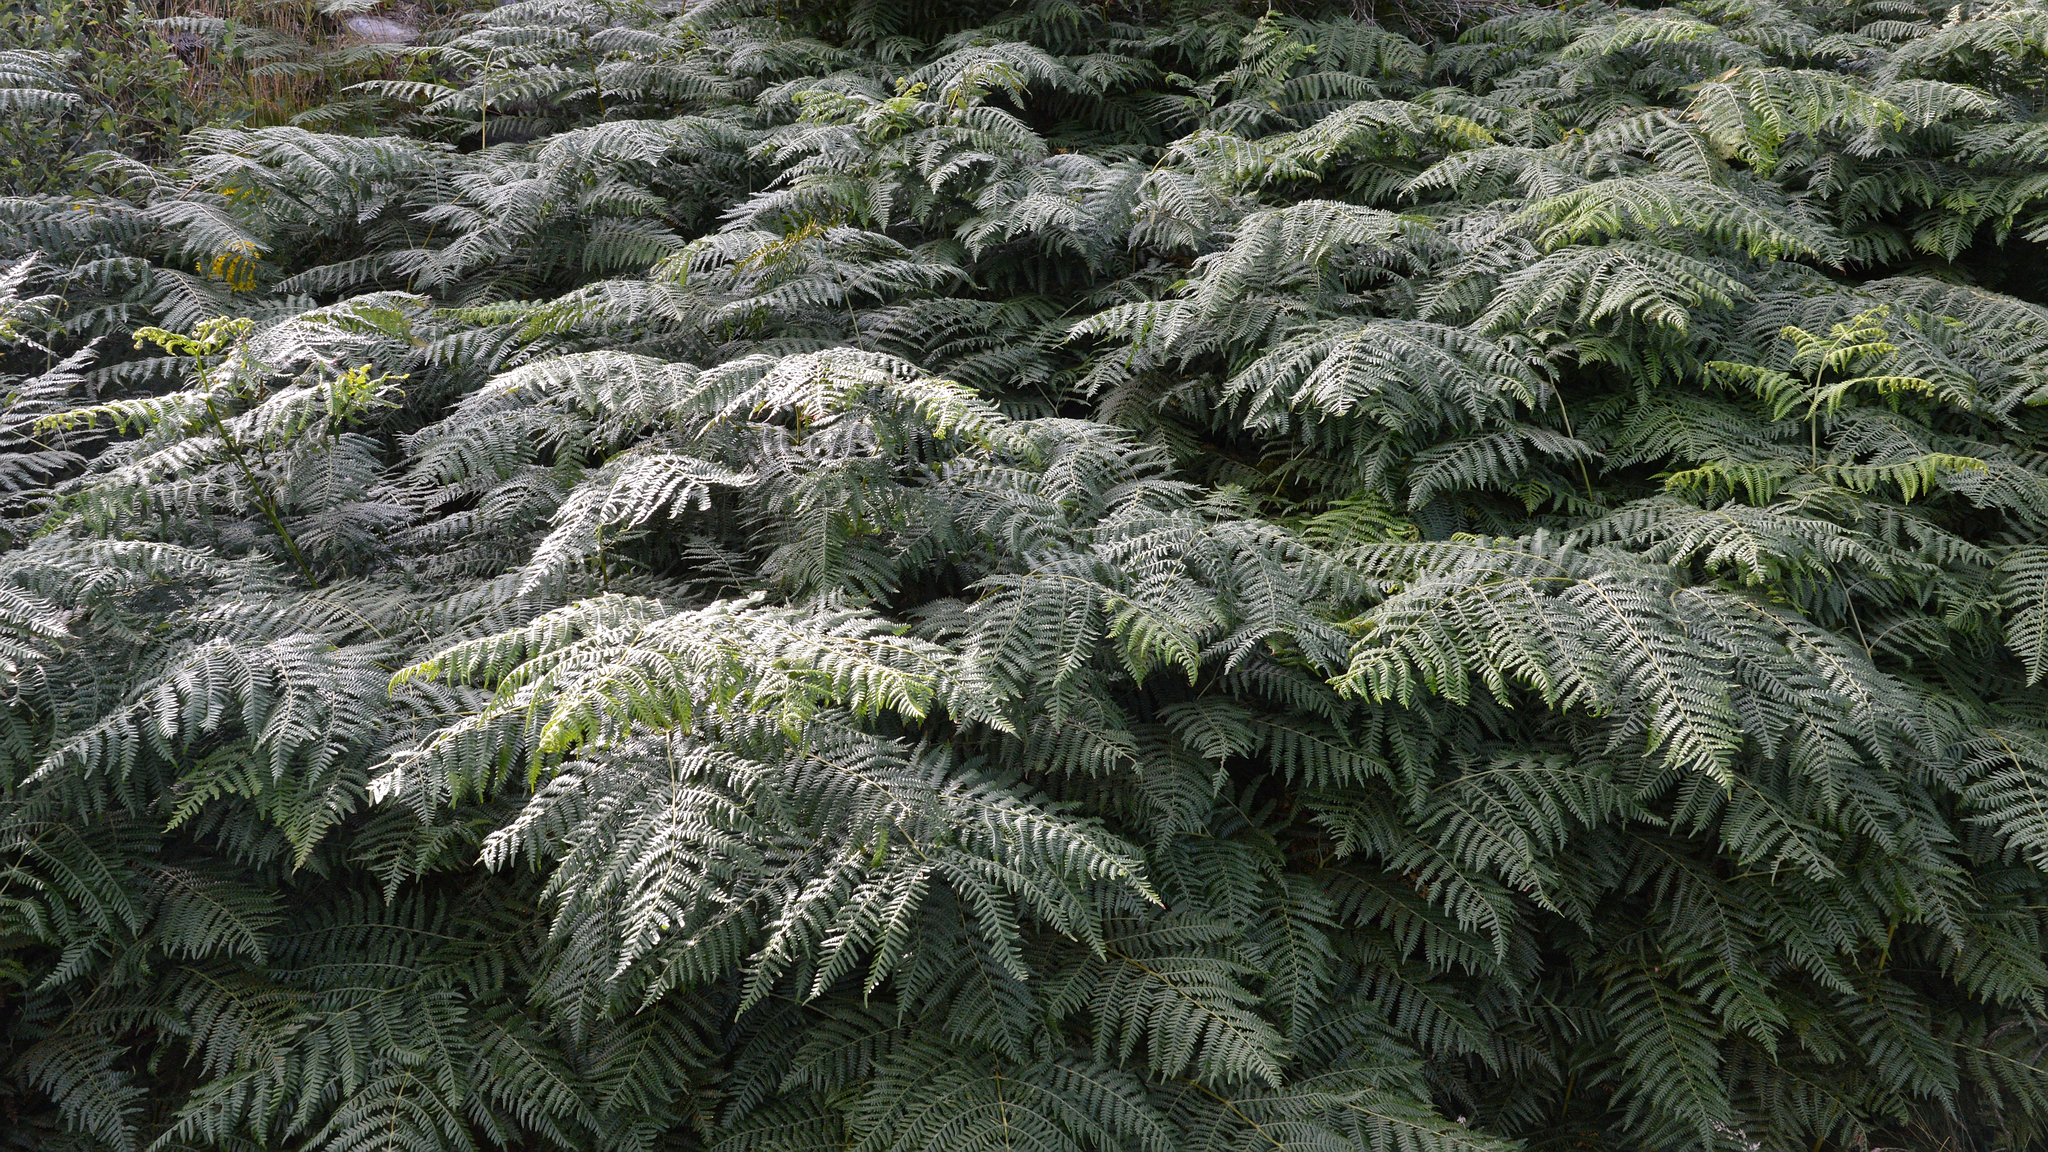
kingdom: Plantae
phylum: Tracheophyta
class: Polypodiopsida
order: Polypodiales
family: Dennstaedtiaceae
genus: Pteridium
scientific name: Pteridium aquilinum
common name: Bracken
